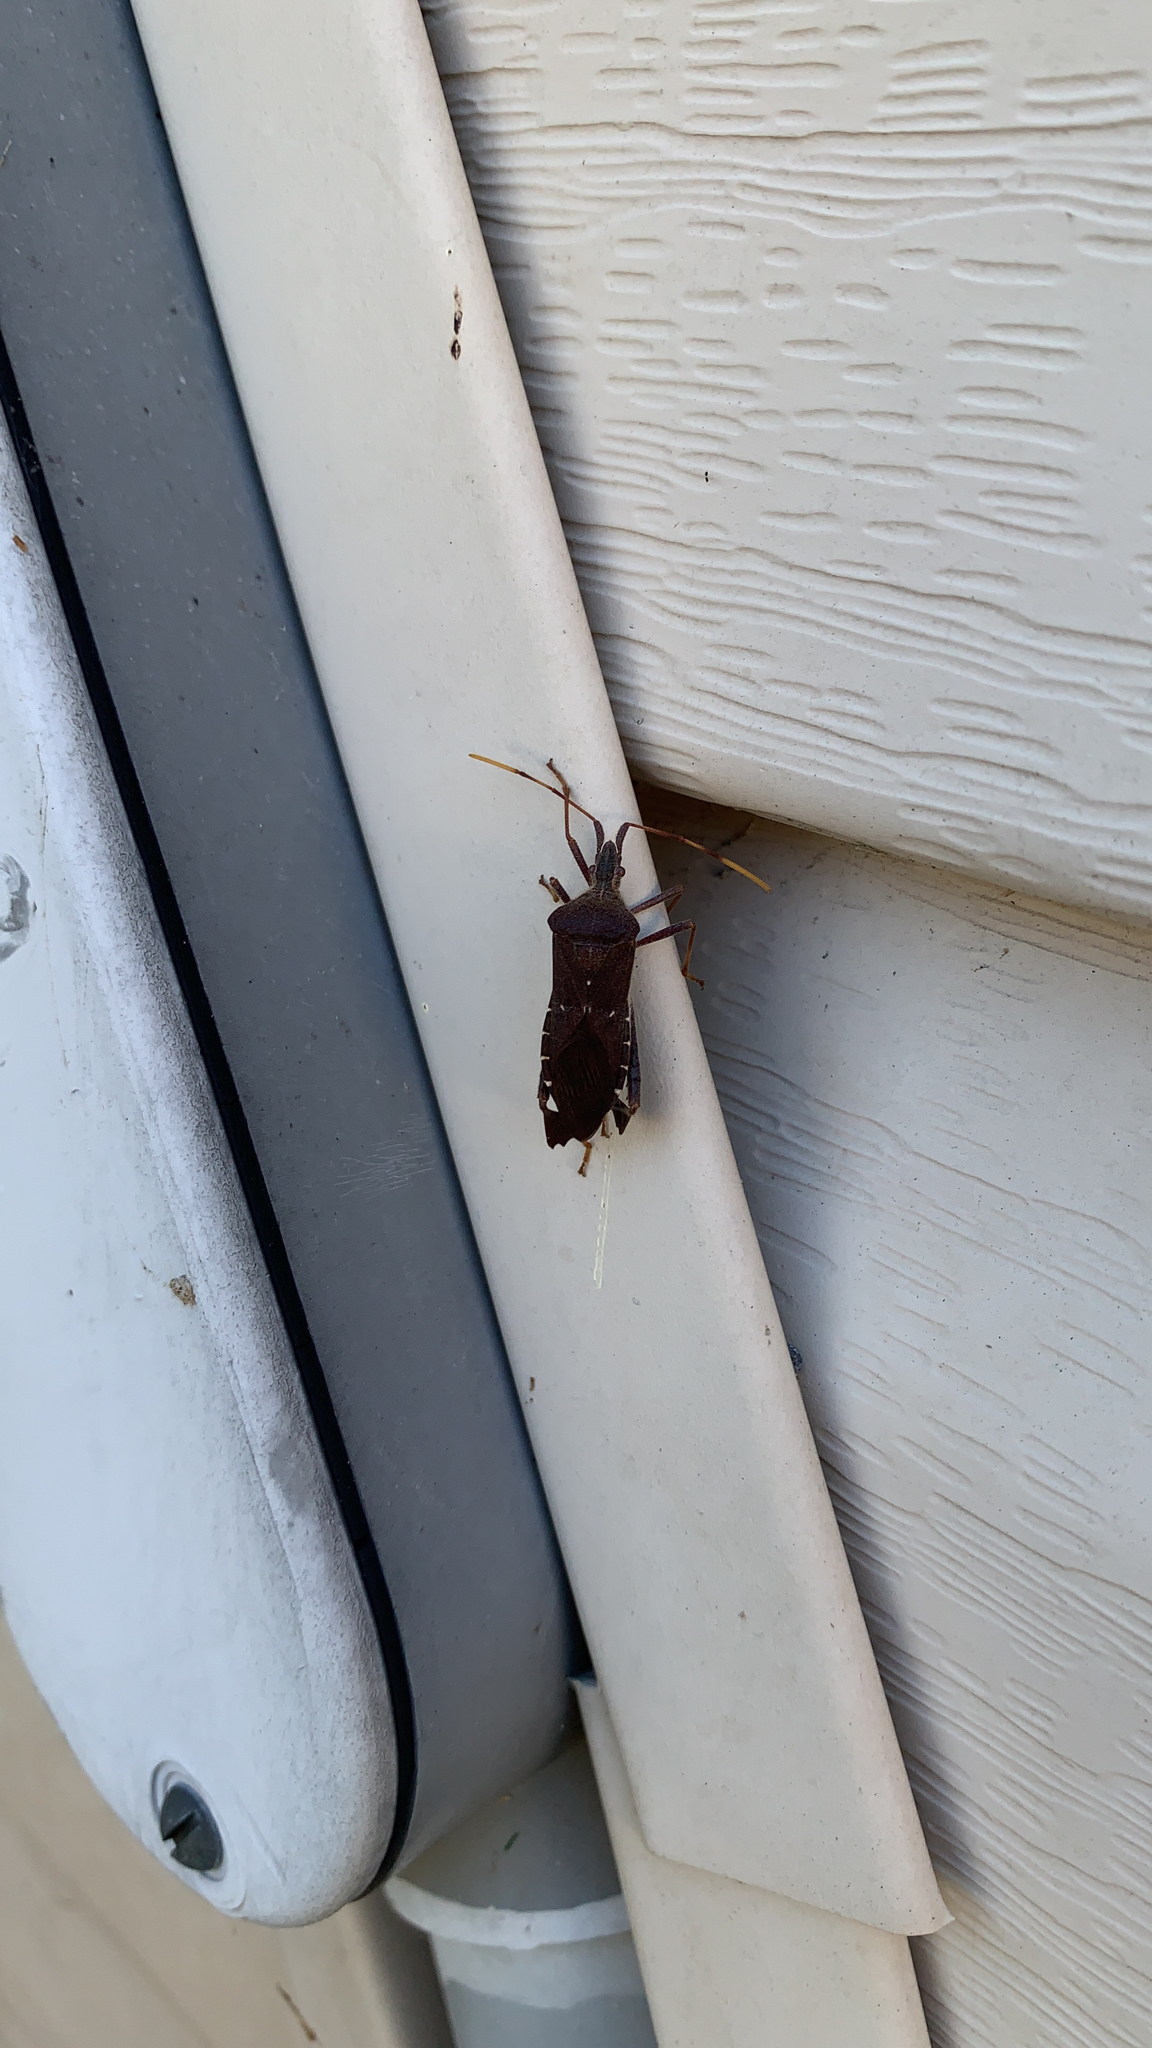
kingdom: Animalia
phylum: Arthropoda
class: Insecta
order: Hemiptera
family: Coreidae
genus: Leptoglossus
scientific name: Leptoglossus oppositus
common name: Northern leaf-footed bug
